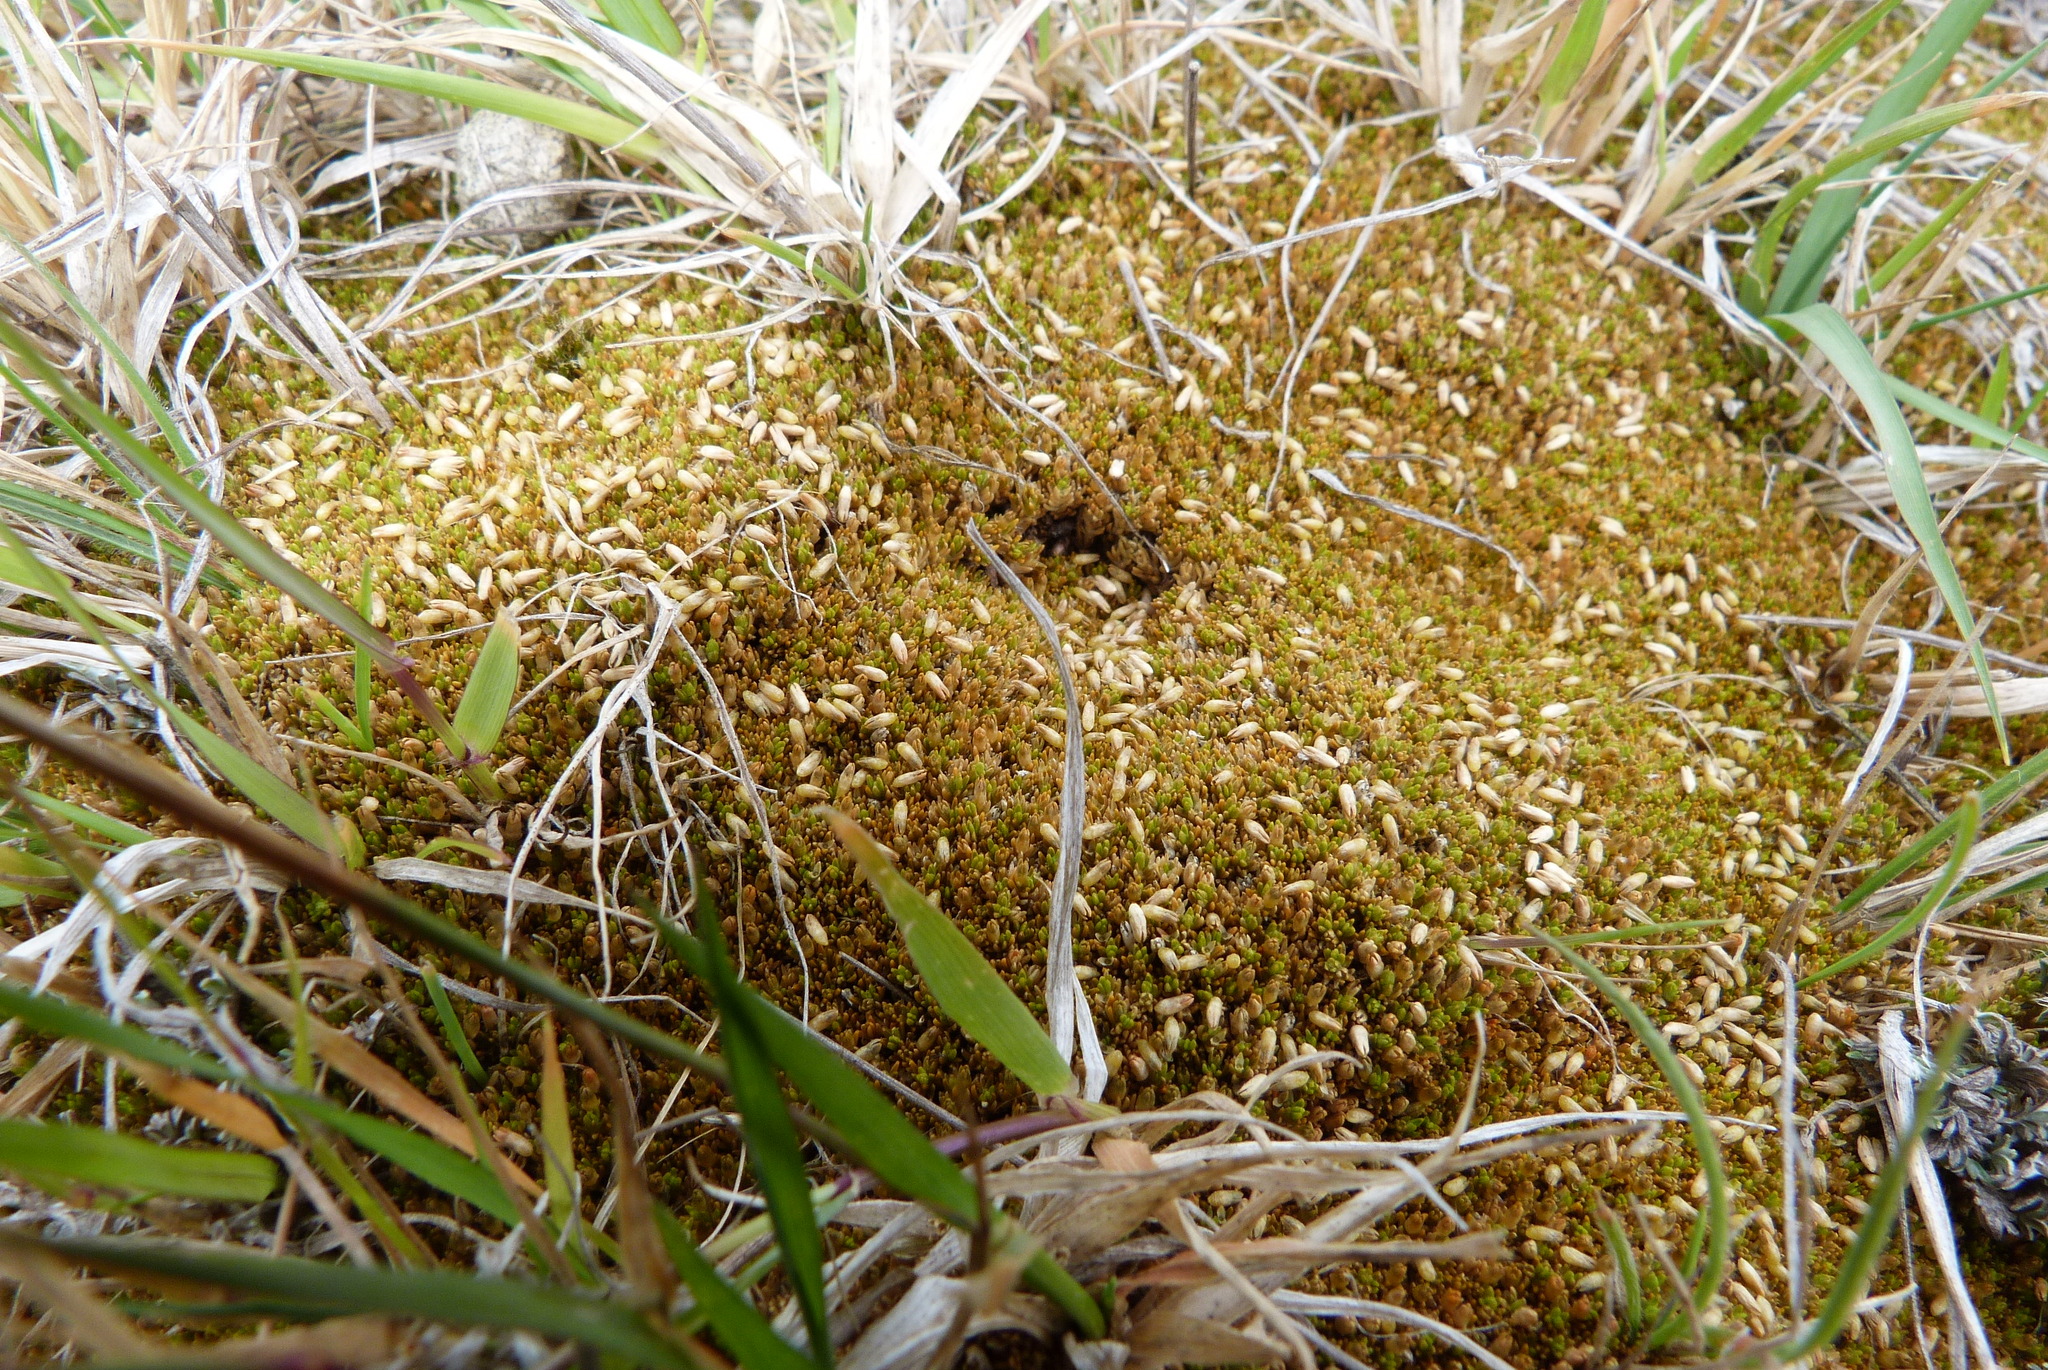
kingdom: Plantae
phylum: Tracheophyta
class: Magnoliopsida
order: Caryophyllales
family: Caryophyllaceae
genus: Scleranthus
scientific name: Scleranthus uniflorus
